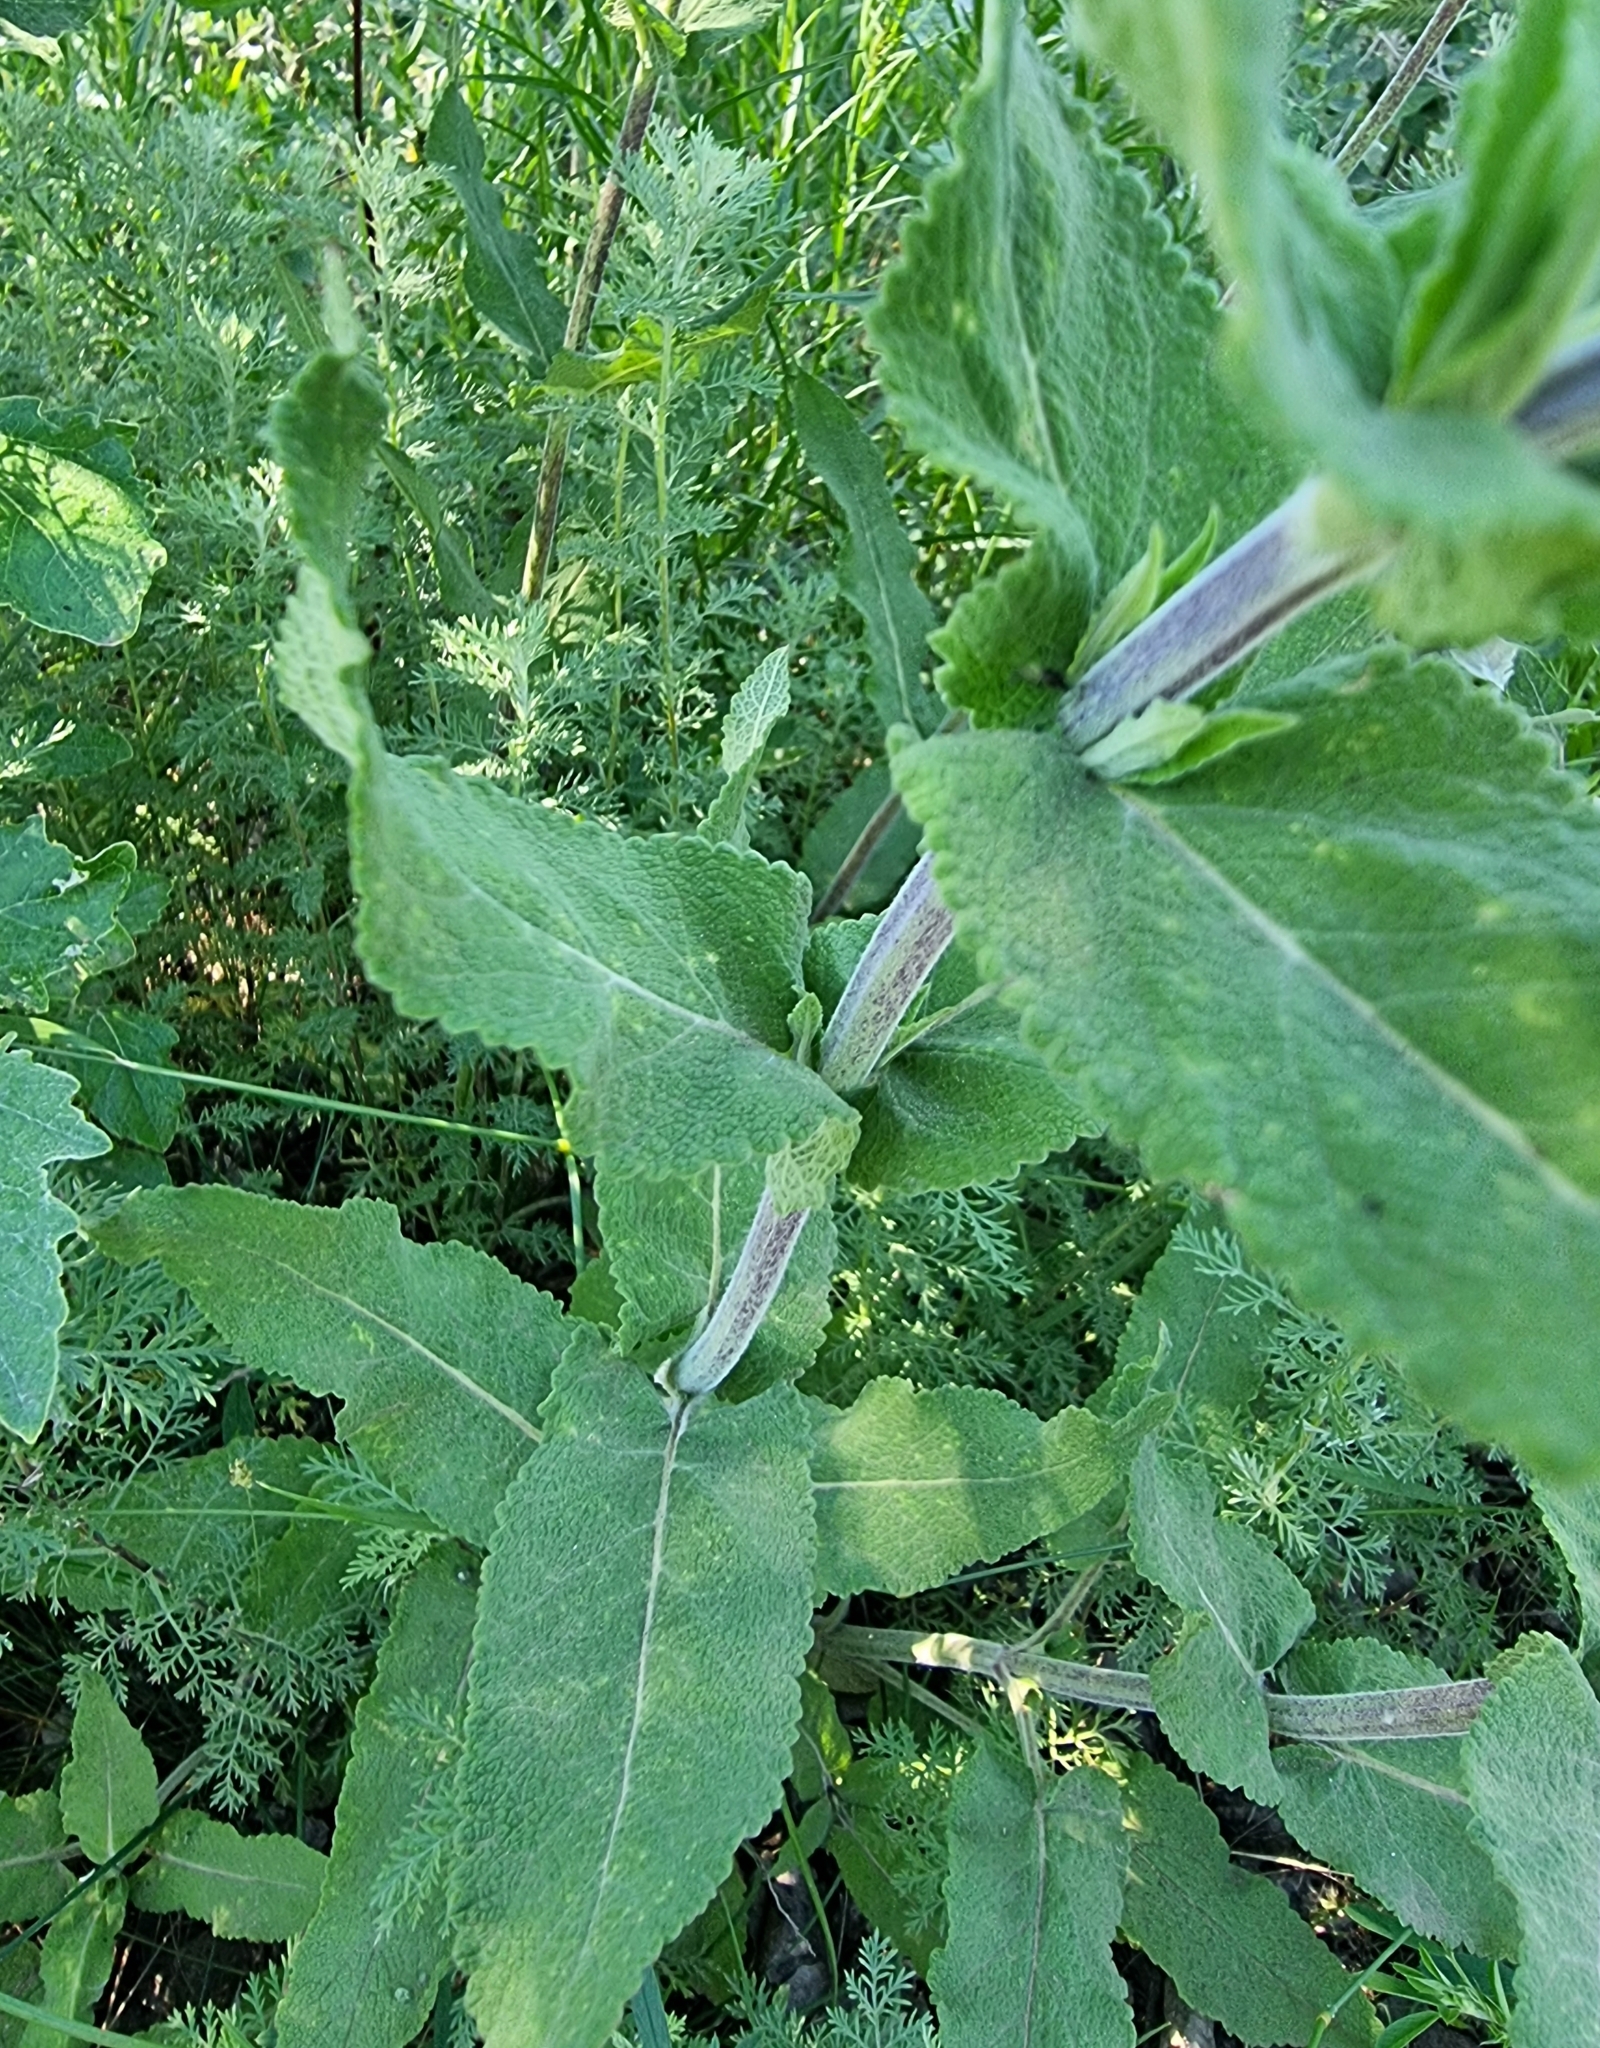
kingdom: Plantae
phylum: Tracheophyta
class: Magnoliopsida
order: Lamiales
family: Lamiaceae
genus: Salvia
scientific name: Salvia nemorosa
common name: Balkan clary
